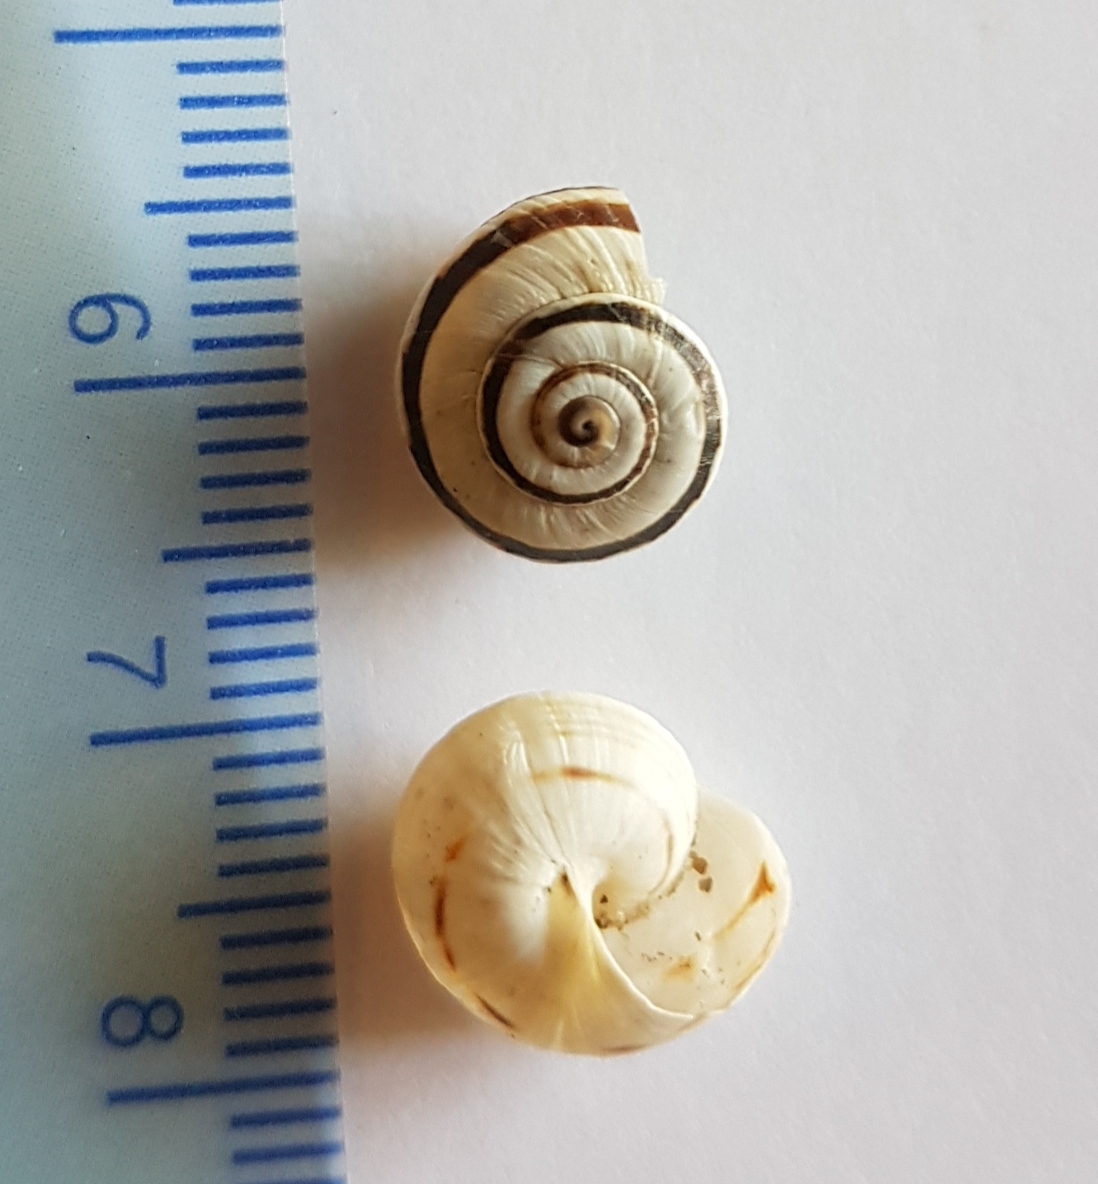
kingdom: Animalia
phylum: Mollusca
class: Gastropoda
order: Stylommatophora
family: Helicidae
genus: Theba
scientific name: Theba pisana
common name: White snail
